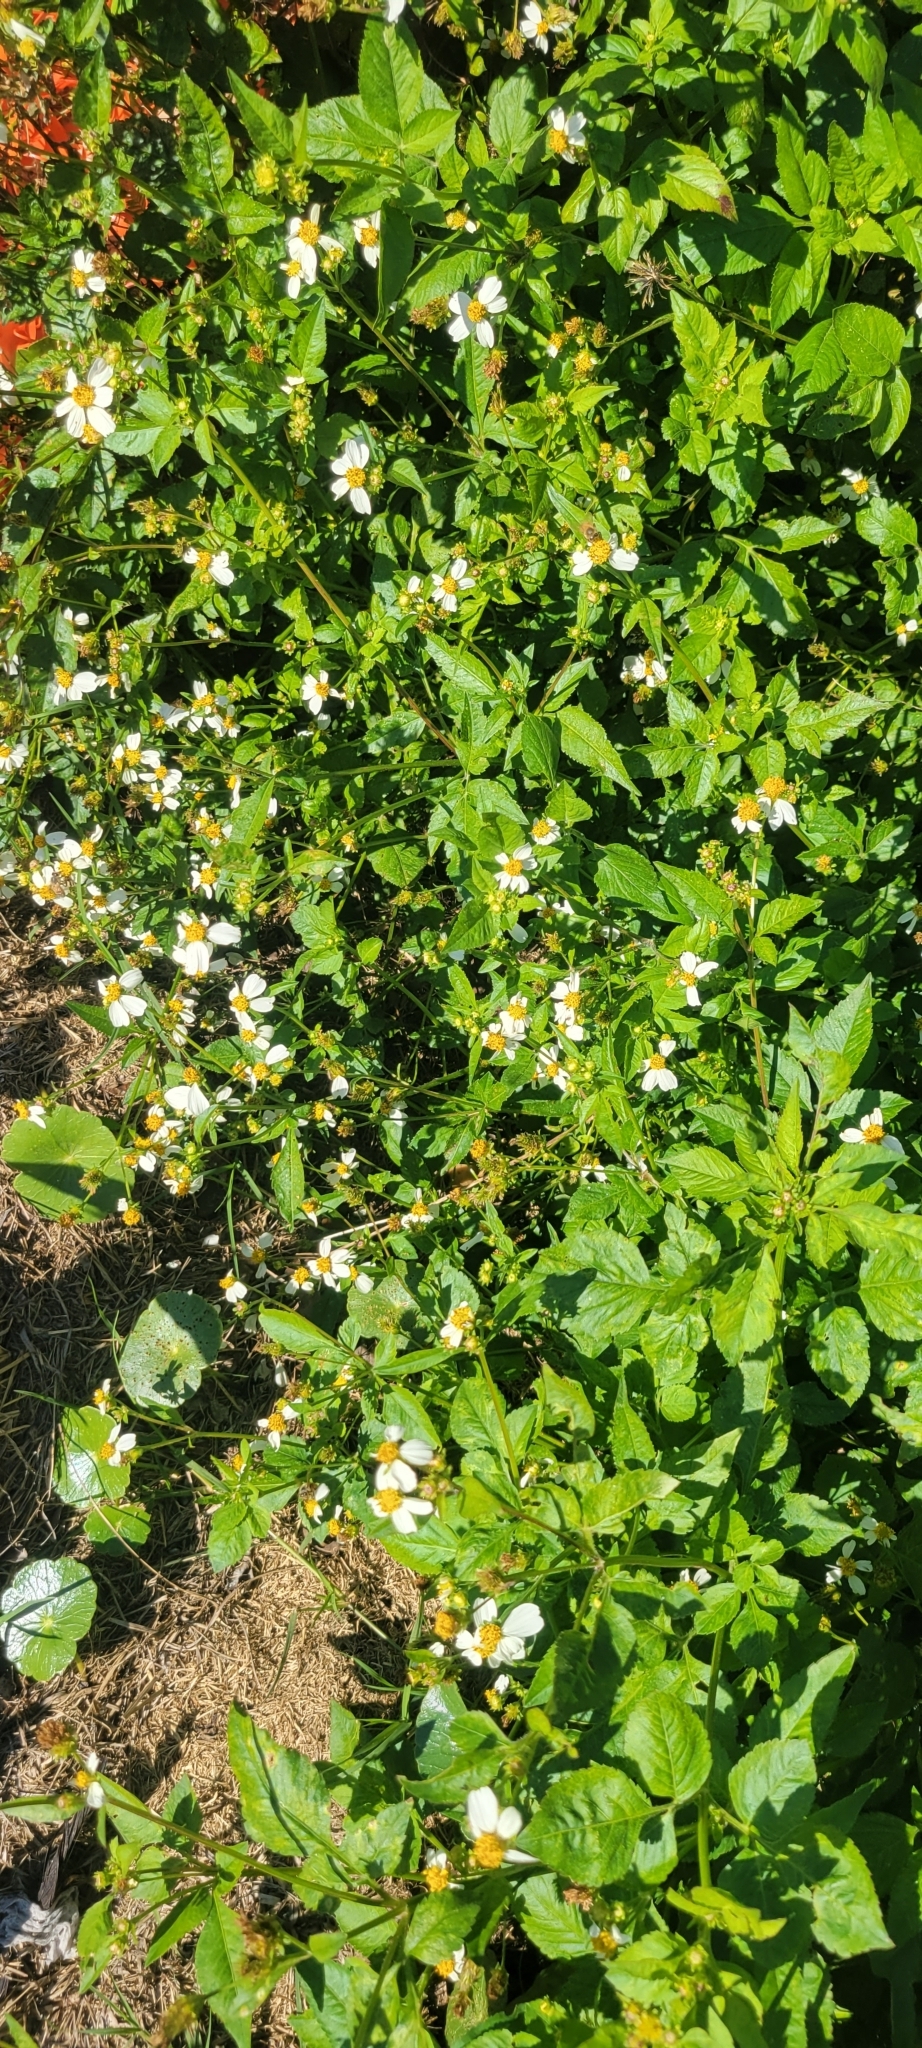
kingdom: Plantae
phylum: Tracheophyta
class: Magnoliopsida
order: Asterales
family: Asteraceae
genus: Bidens
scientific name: Bidens alba
